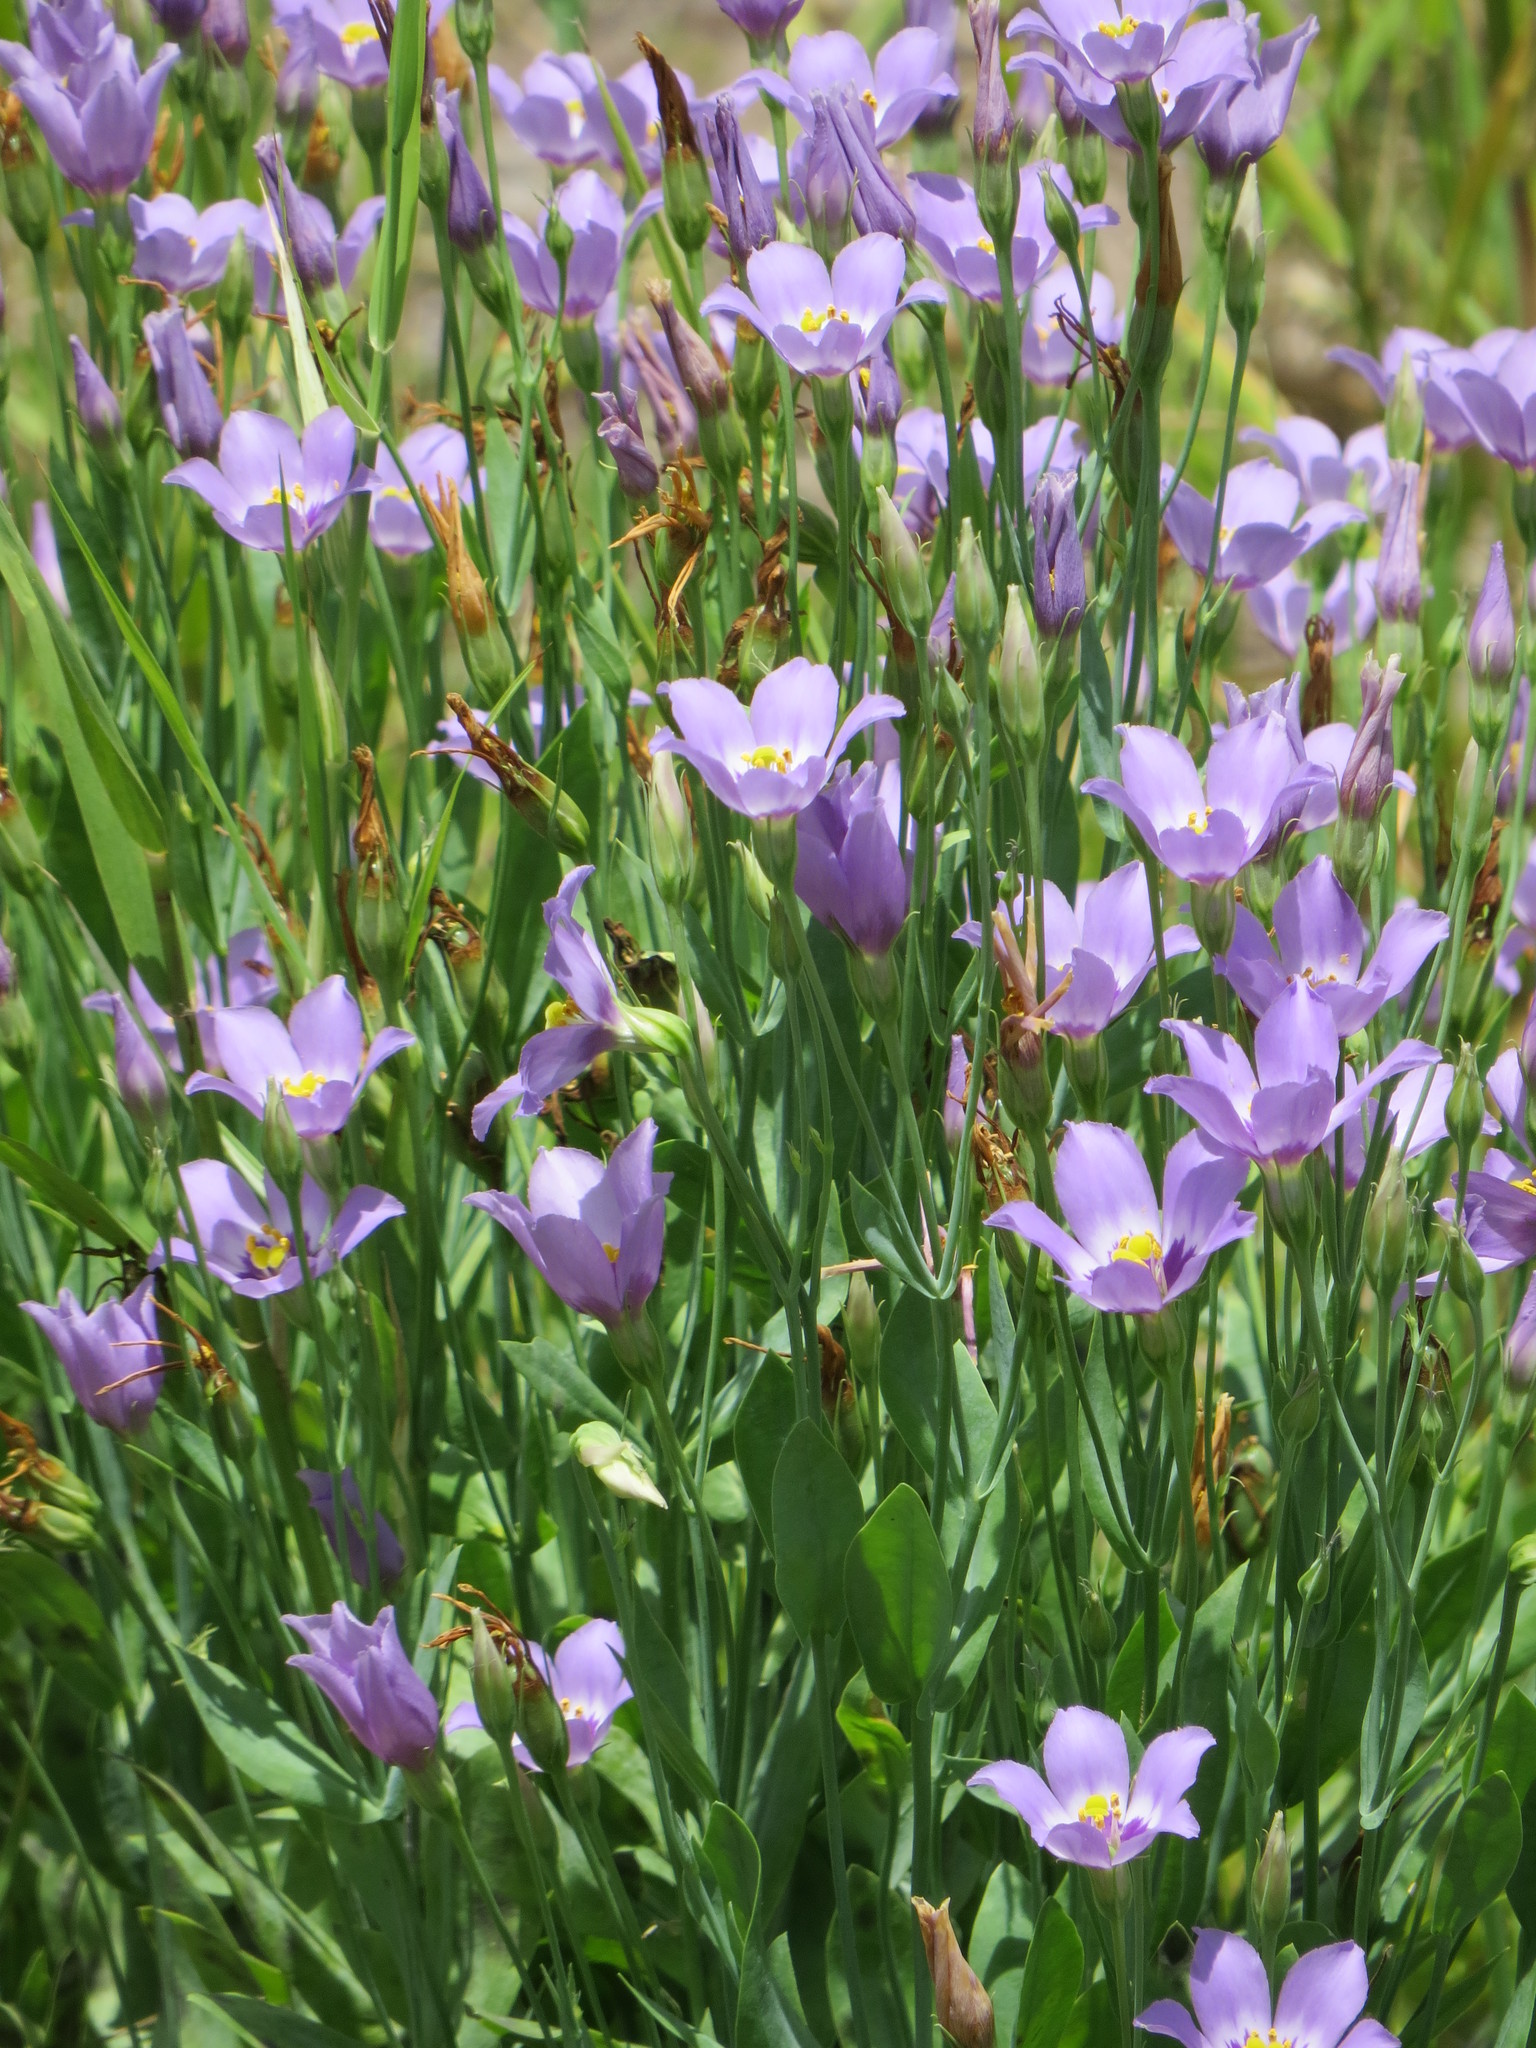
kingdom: Plantae
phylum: Tracheophyta
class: Magnoliopsida
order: Gentianales
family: Gentianaceae
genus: Eustoma
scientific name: Eustoma exaltatum
